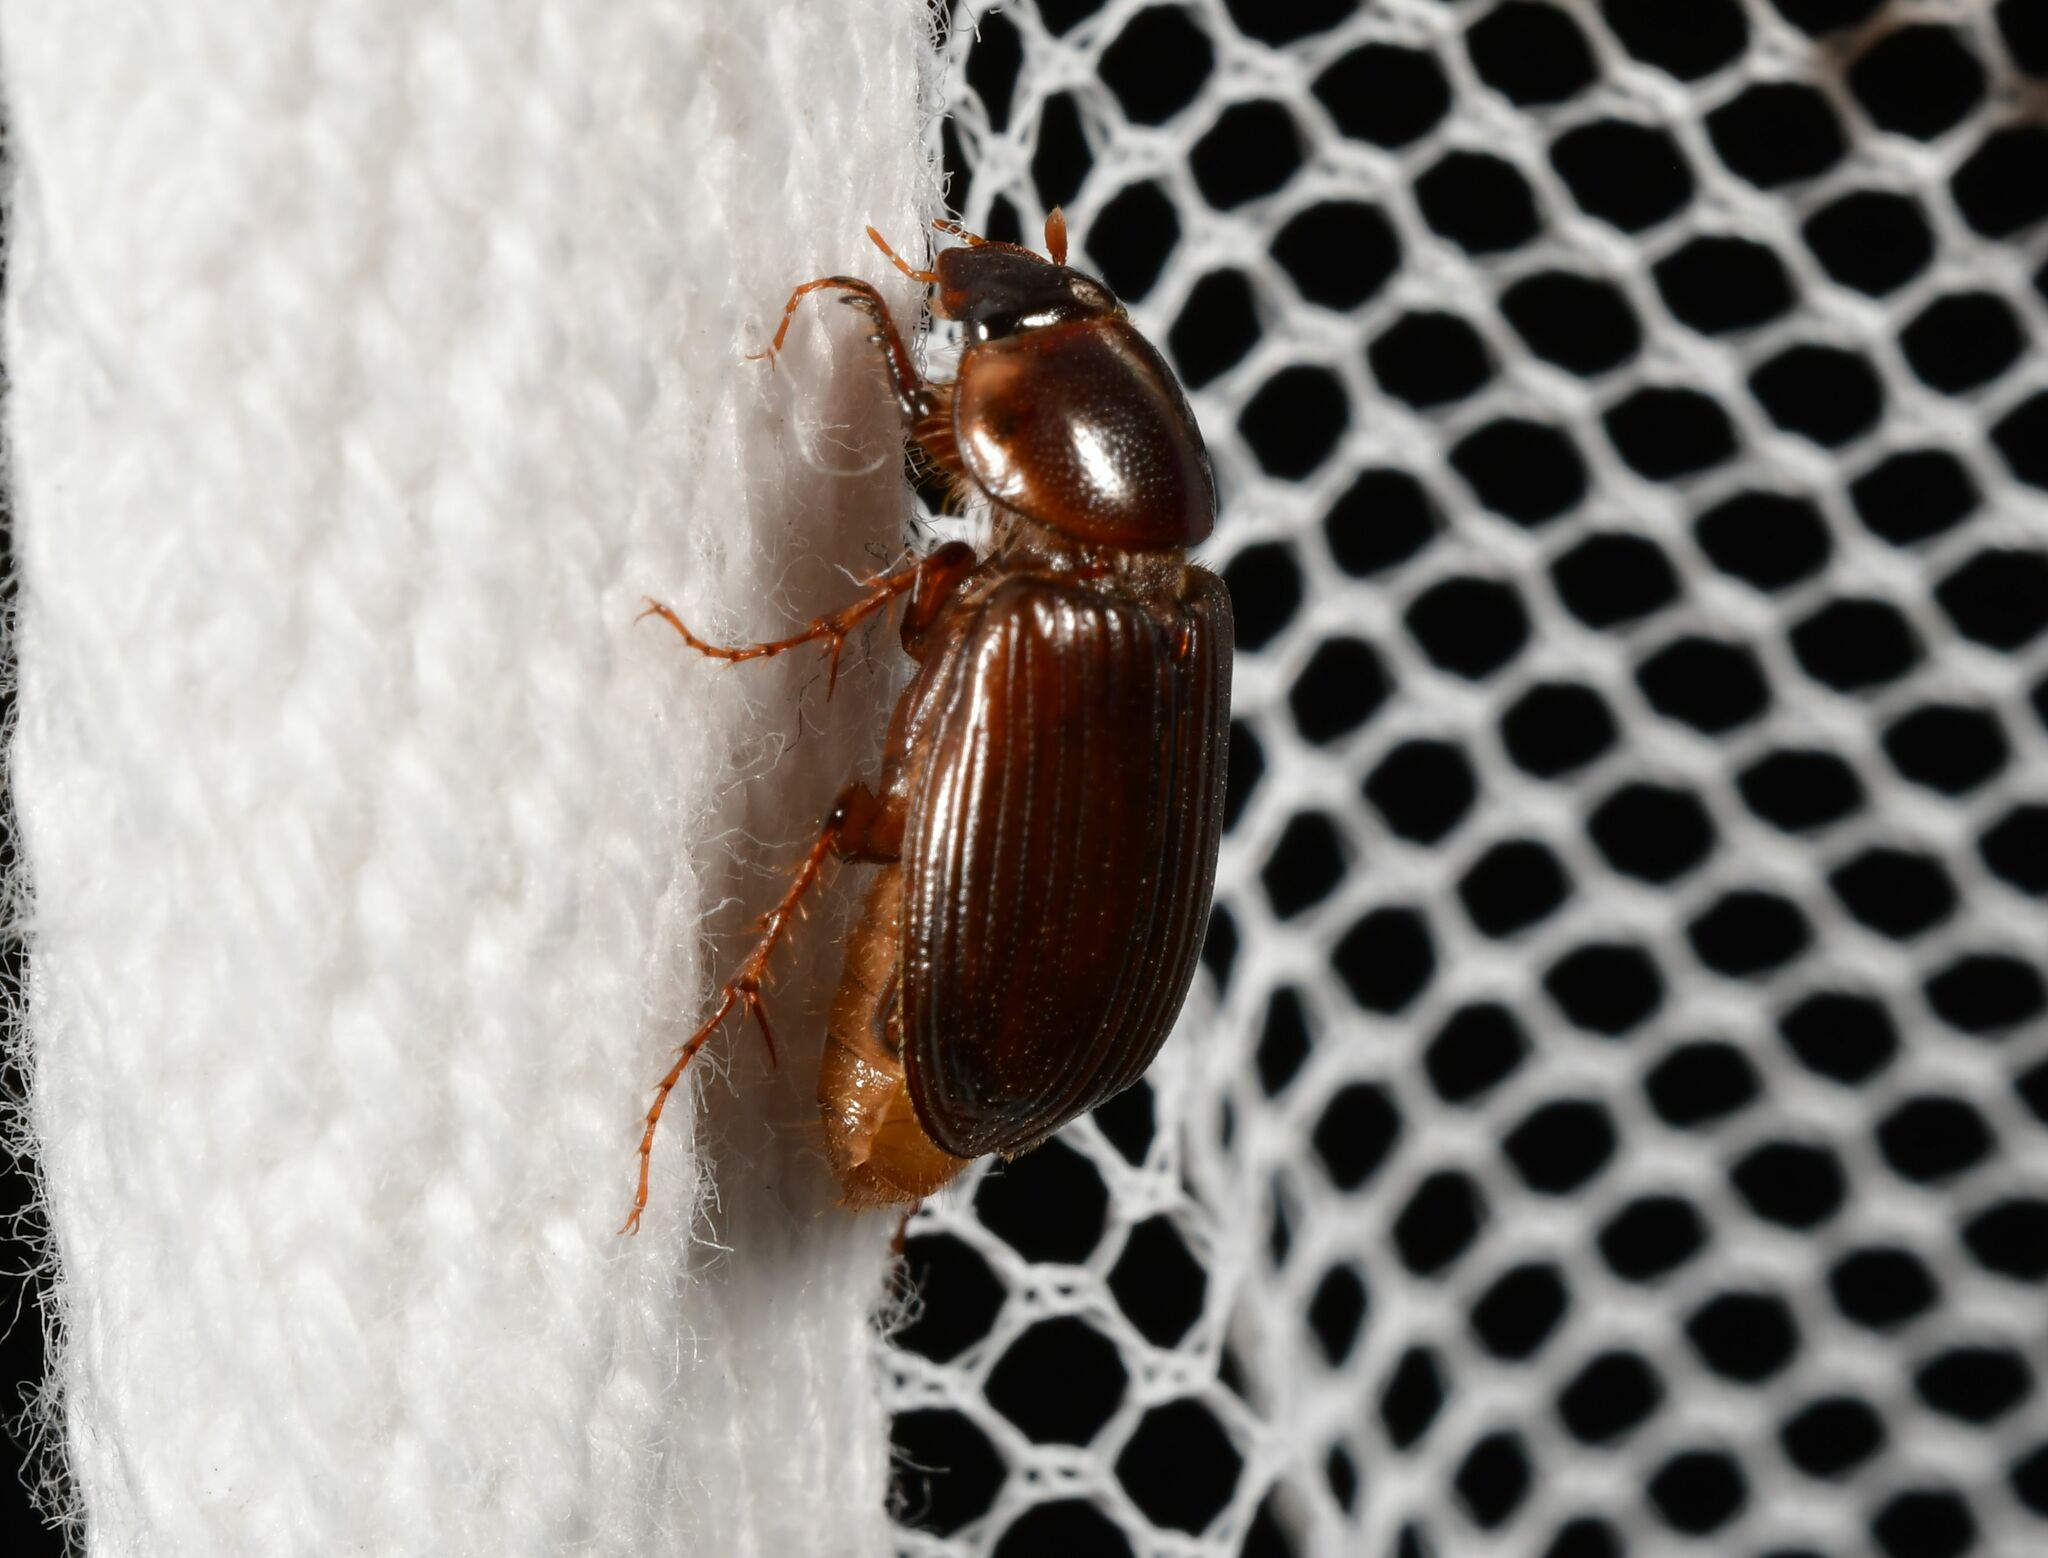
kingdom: Animalia
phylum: Arthropoda
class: Insecta
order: Coleoptera
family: Scarabaeidae
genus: Acrossidius
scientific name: Acrossidius tasmaniae
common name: Black-headed pasture cockchafer
